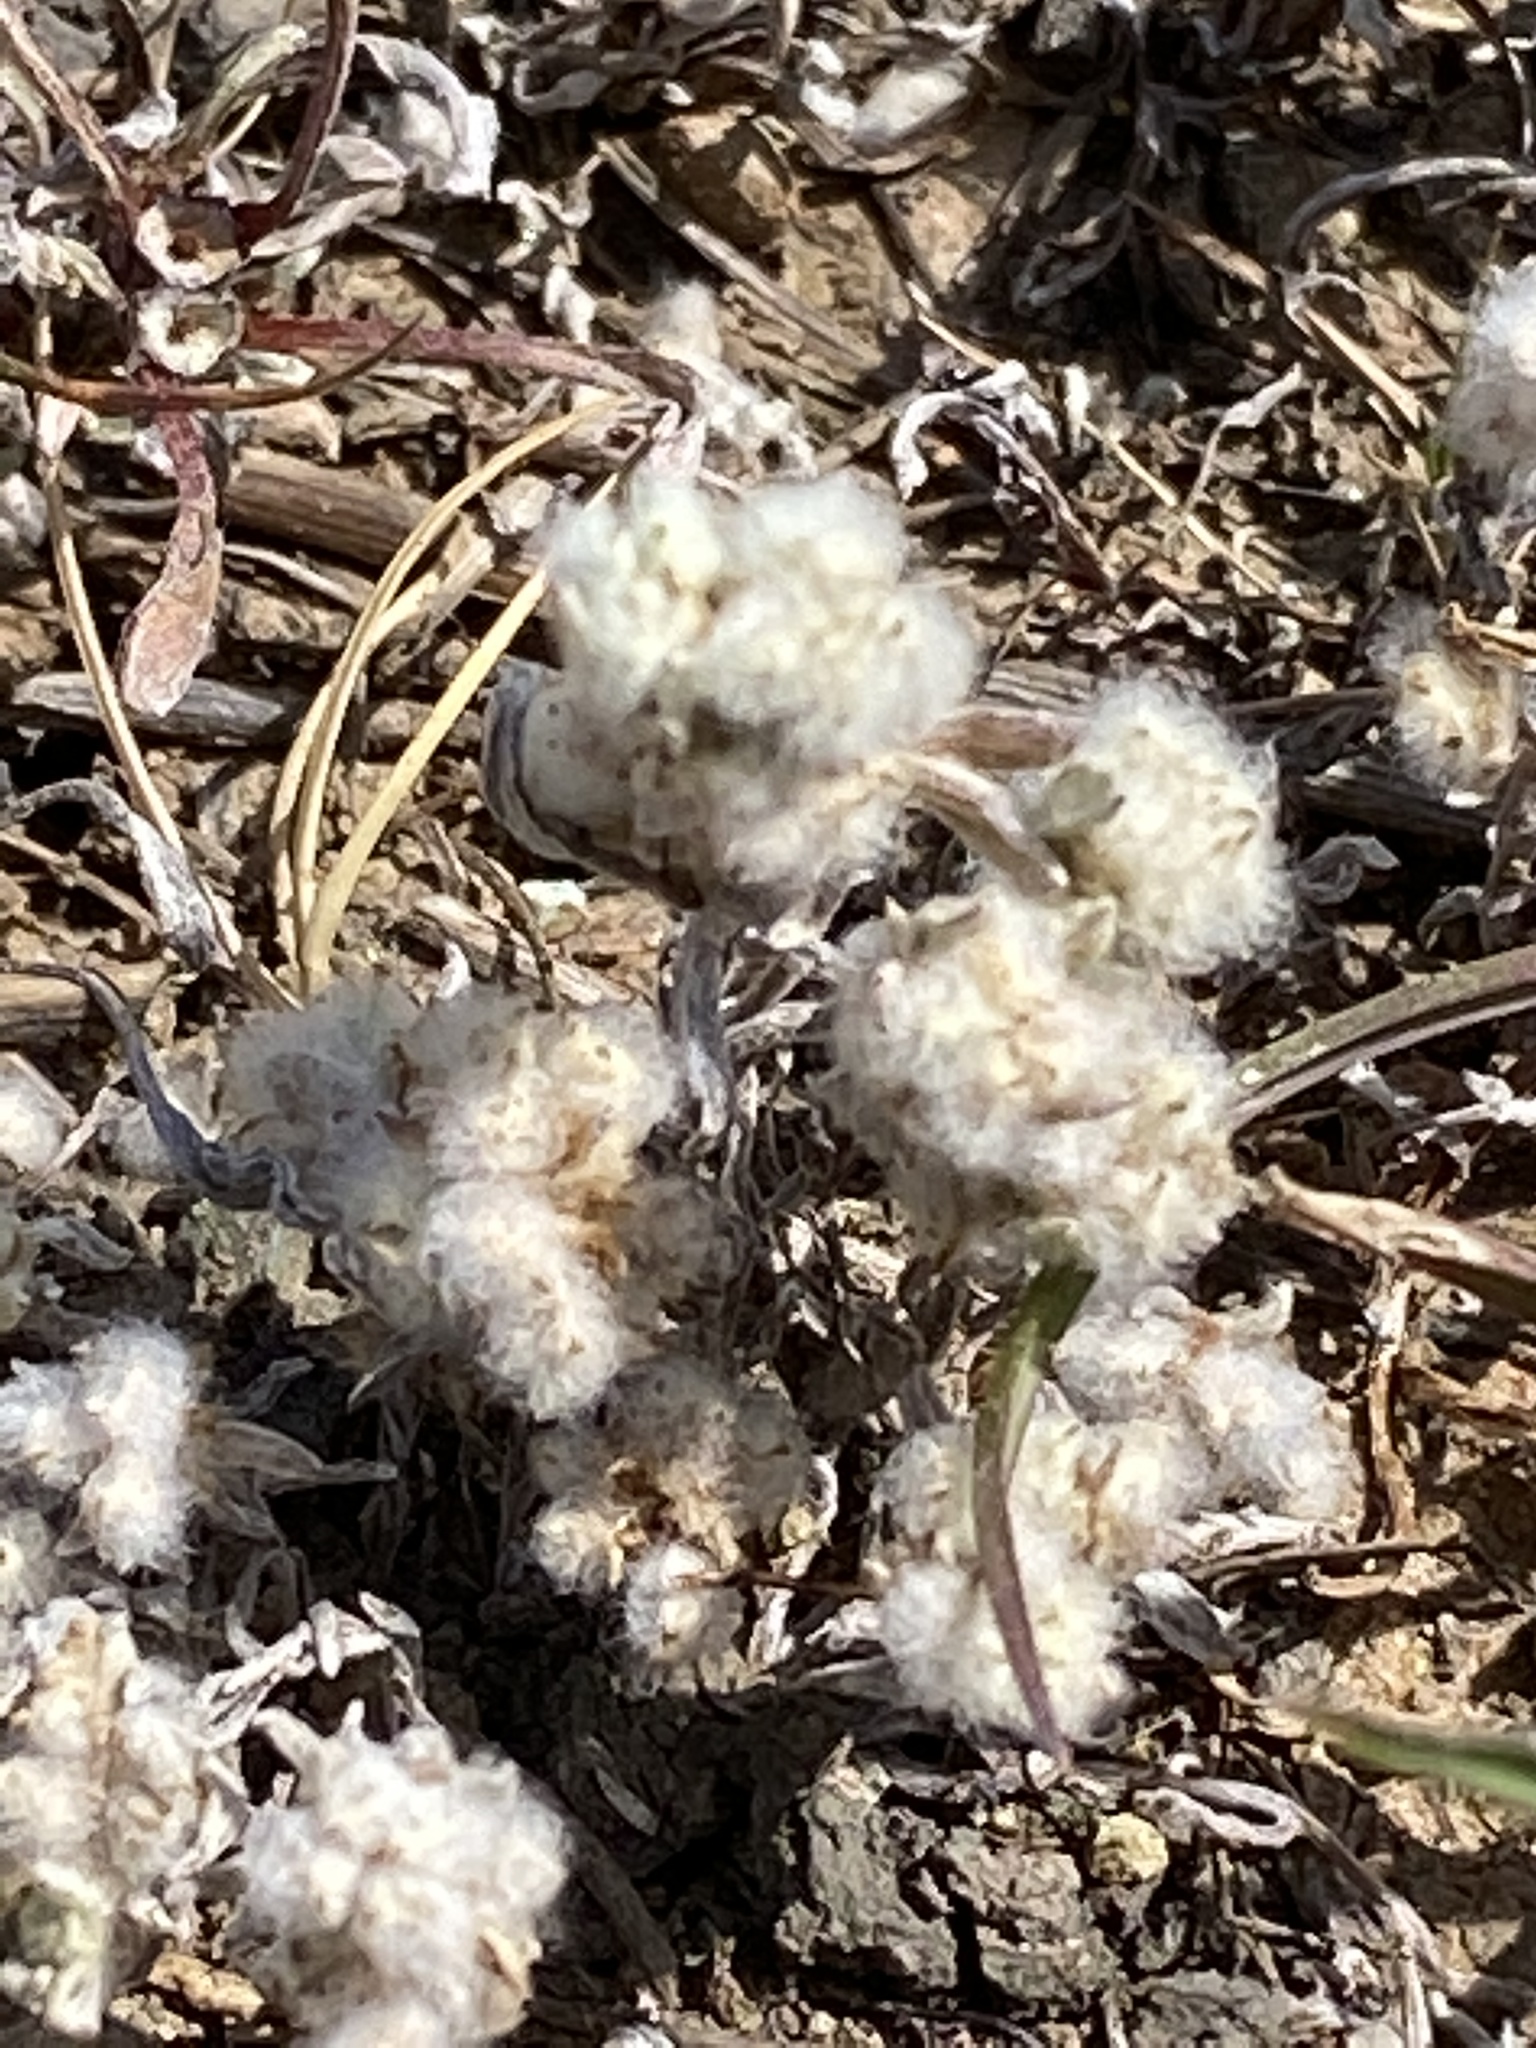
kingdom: Plantae
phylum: Tracheophyta
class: Magnoliopsida
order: Asterales
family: Asteraceae
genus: Bombycilaena
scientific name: Bombycilaena californica
